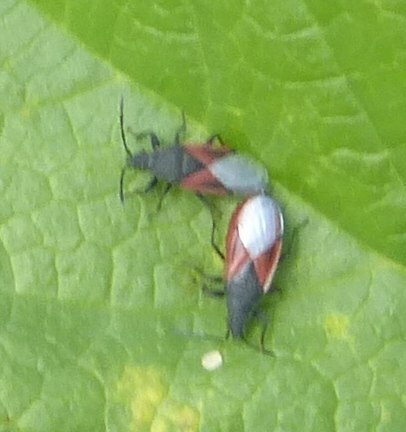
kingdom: Animalia
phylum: Arthropoda
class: Insecta
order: Hemiptera
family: Oxycarenidae
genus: Oxycarenus
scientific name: Oxycarenus lavaterae
